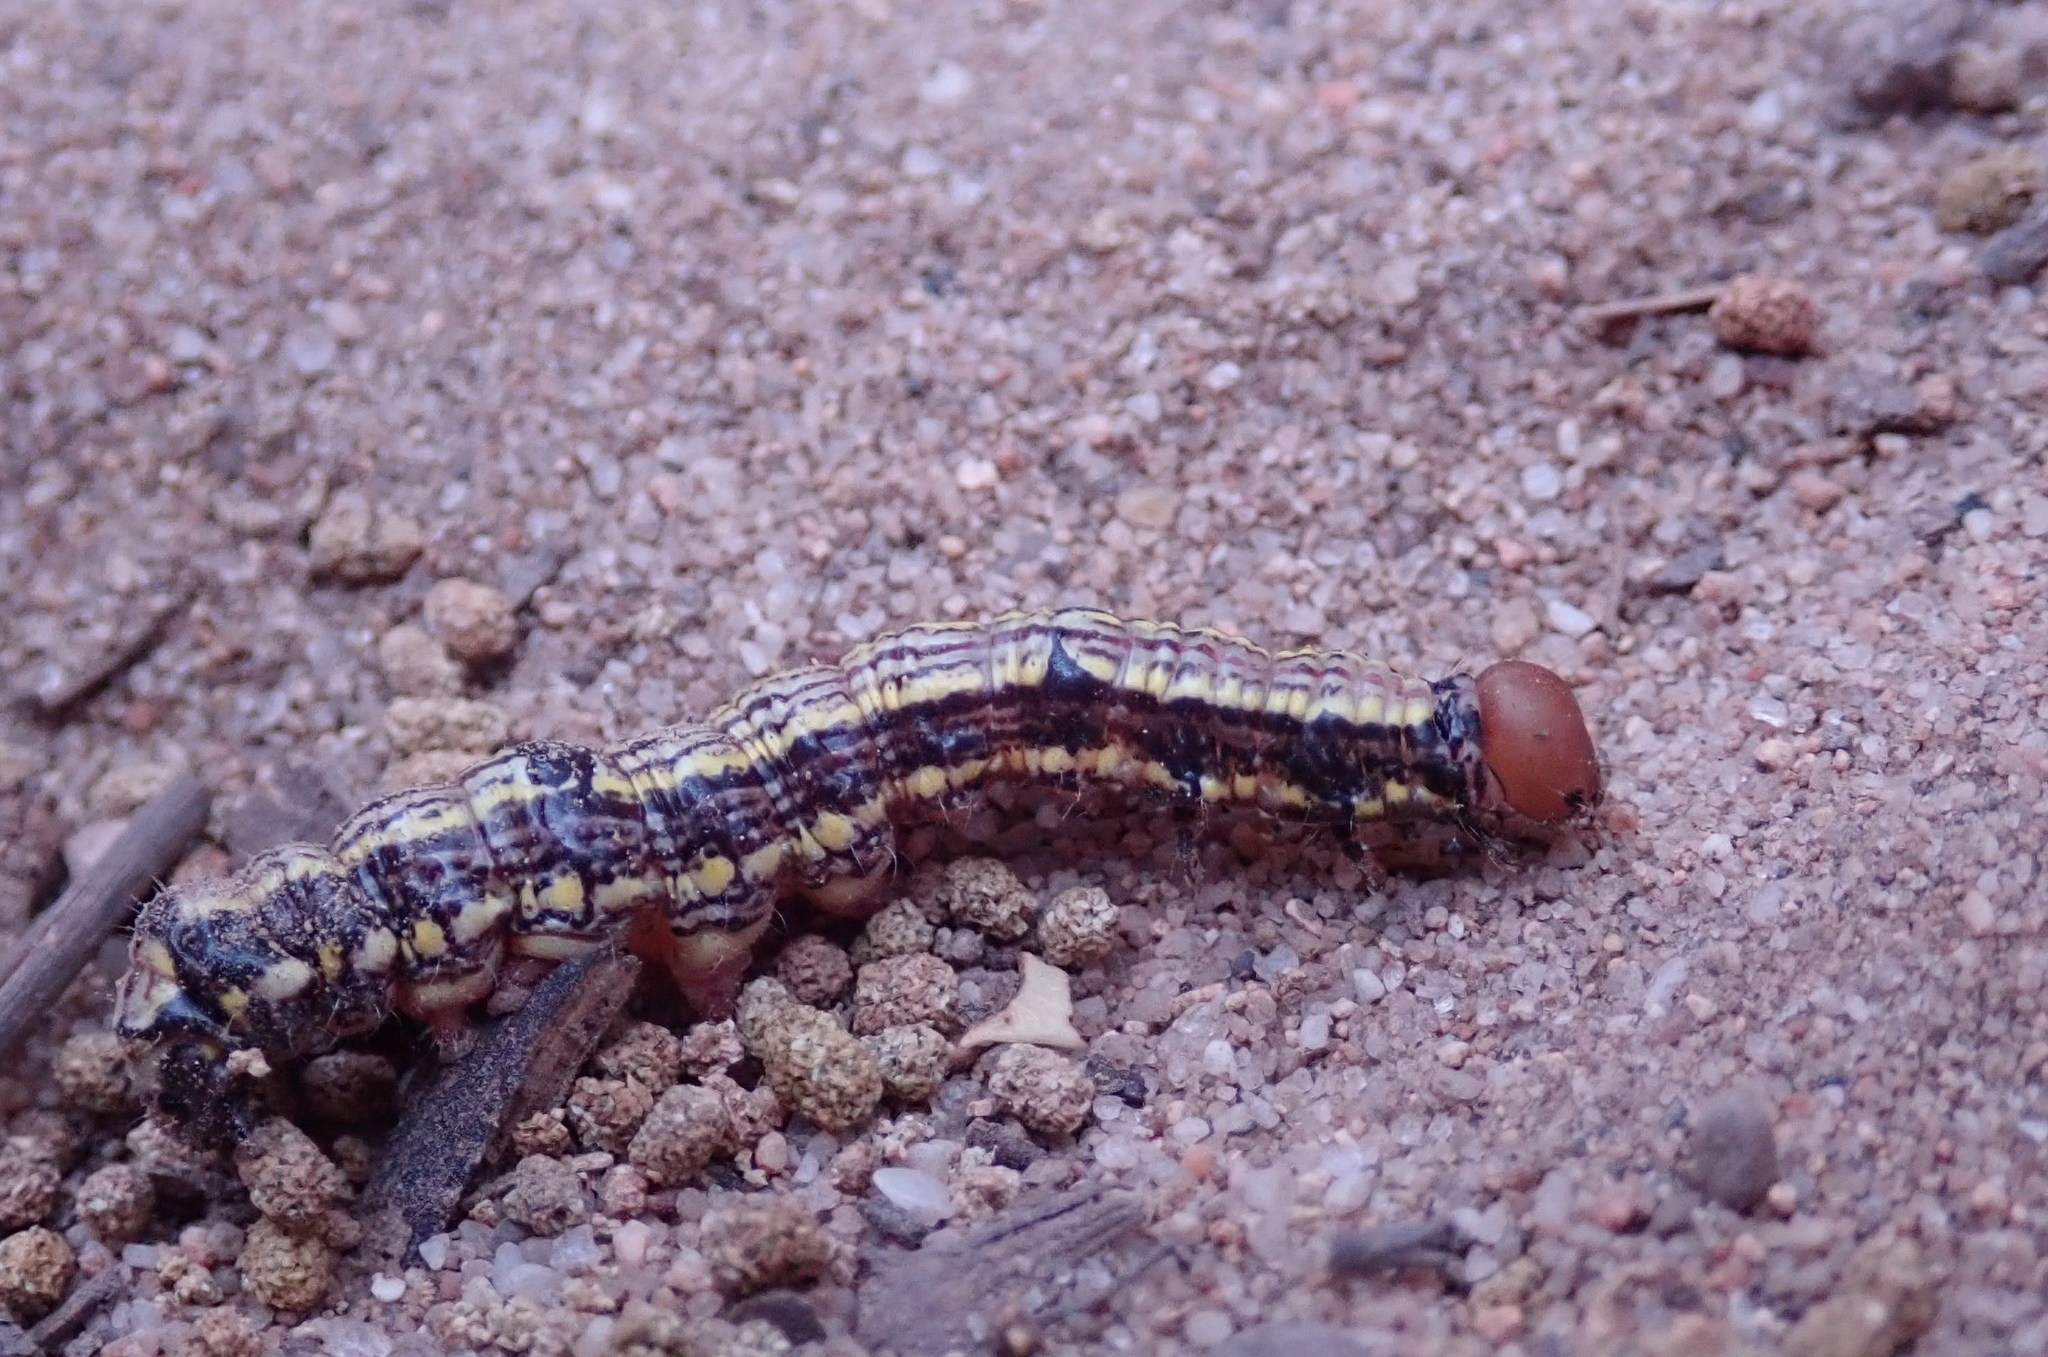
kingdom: Animalia
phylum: Arthropoda
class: Insecta
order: Lepidoptera
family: Notodontidae
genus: Phryganidia
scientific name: Phryganidia californica
